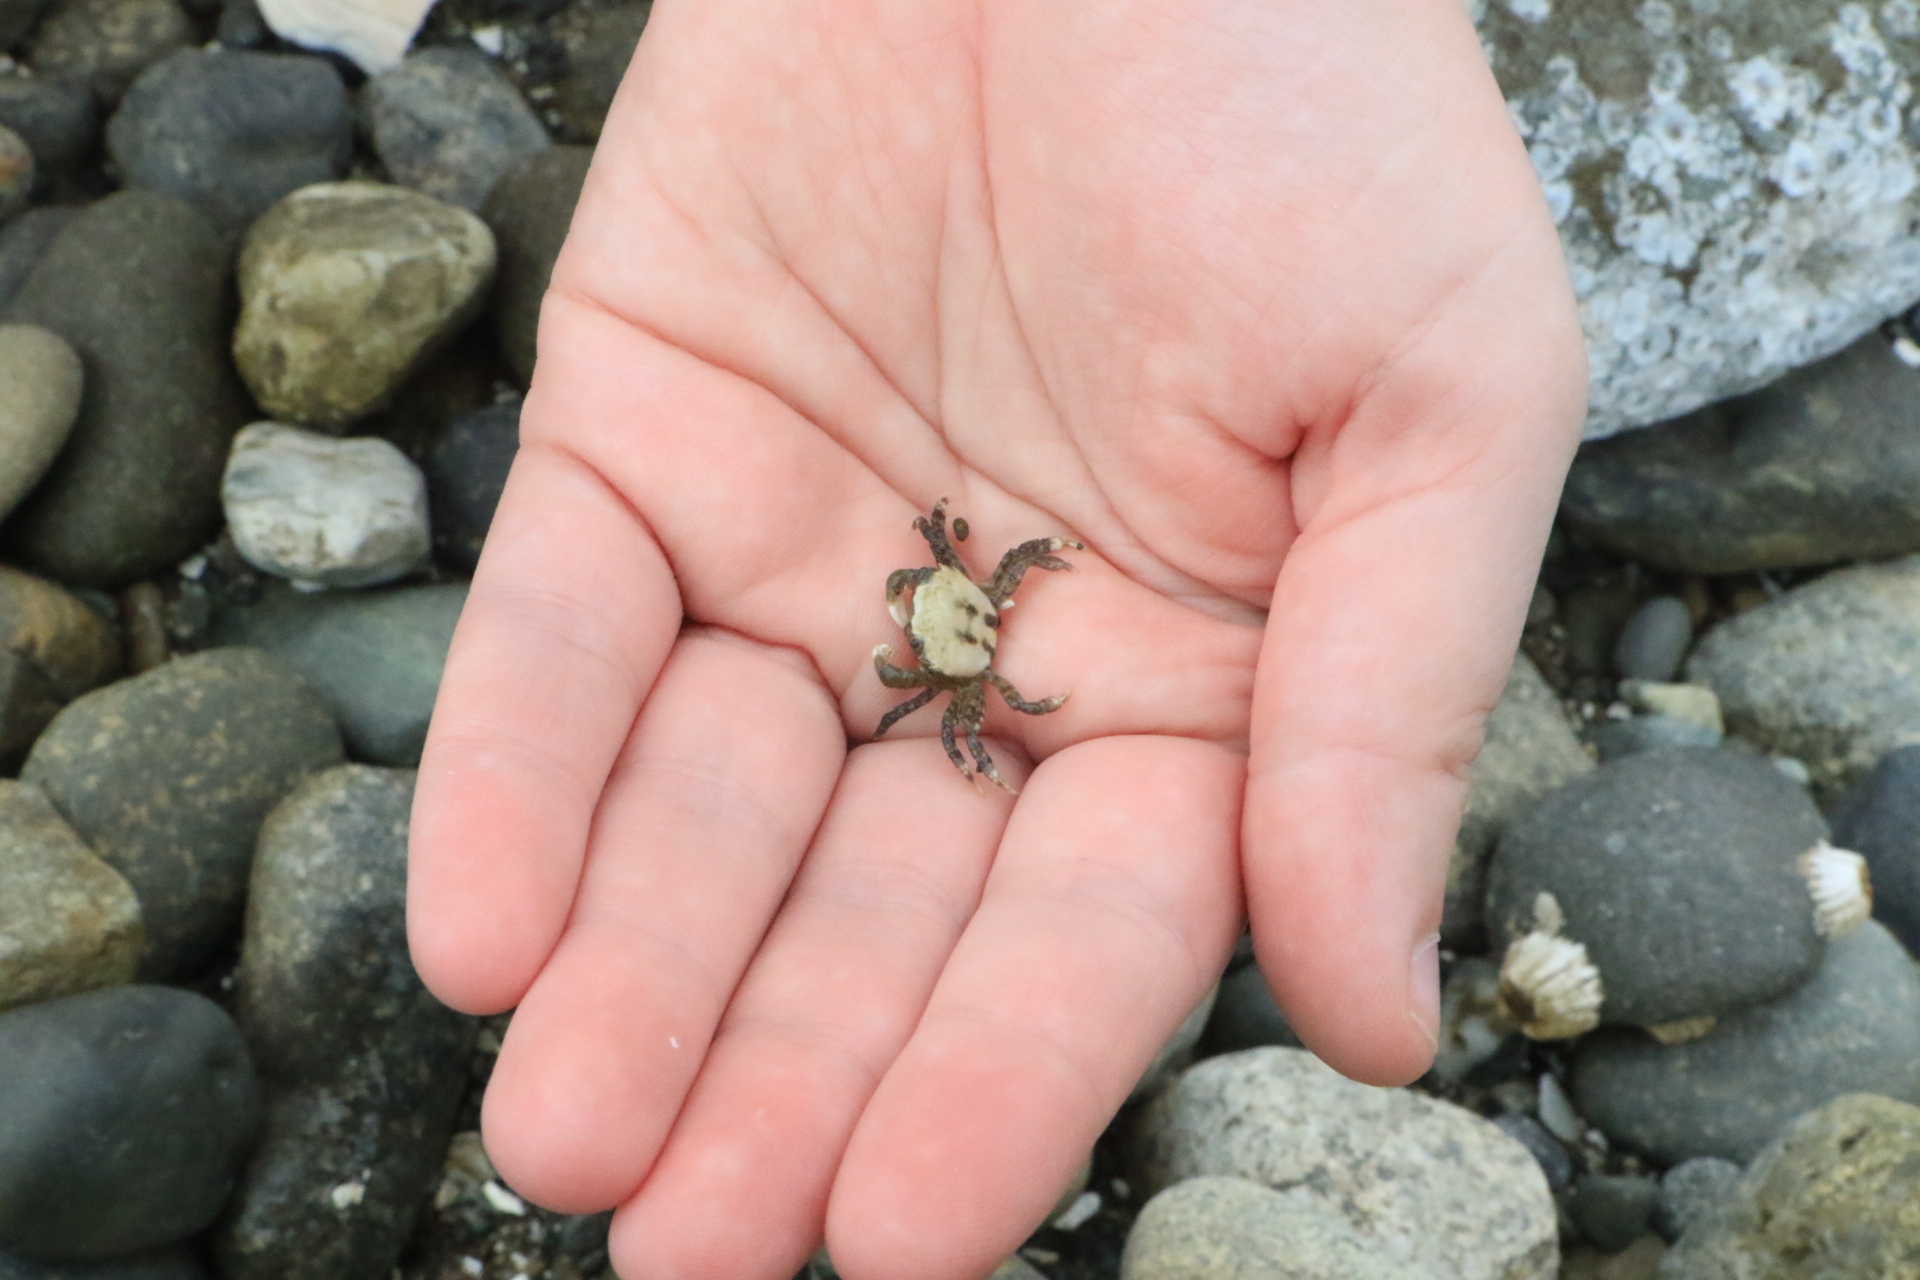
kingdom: Animalia
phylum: Arthropoda
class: Malacostraca
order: Decapoda
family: Varunidae
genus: Hemigrapsus
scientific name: Hemigrapsus oregonensis
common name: Yellow shore crab
